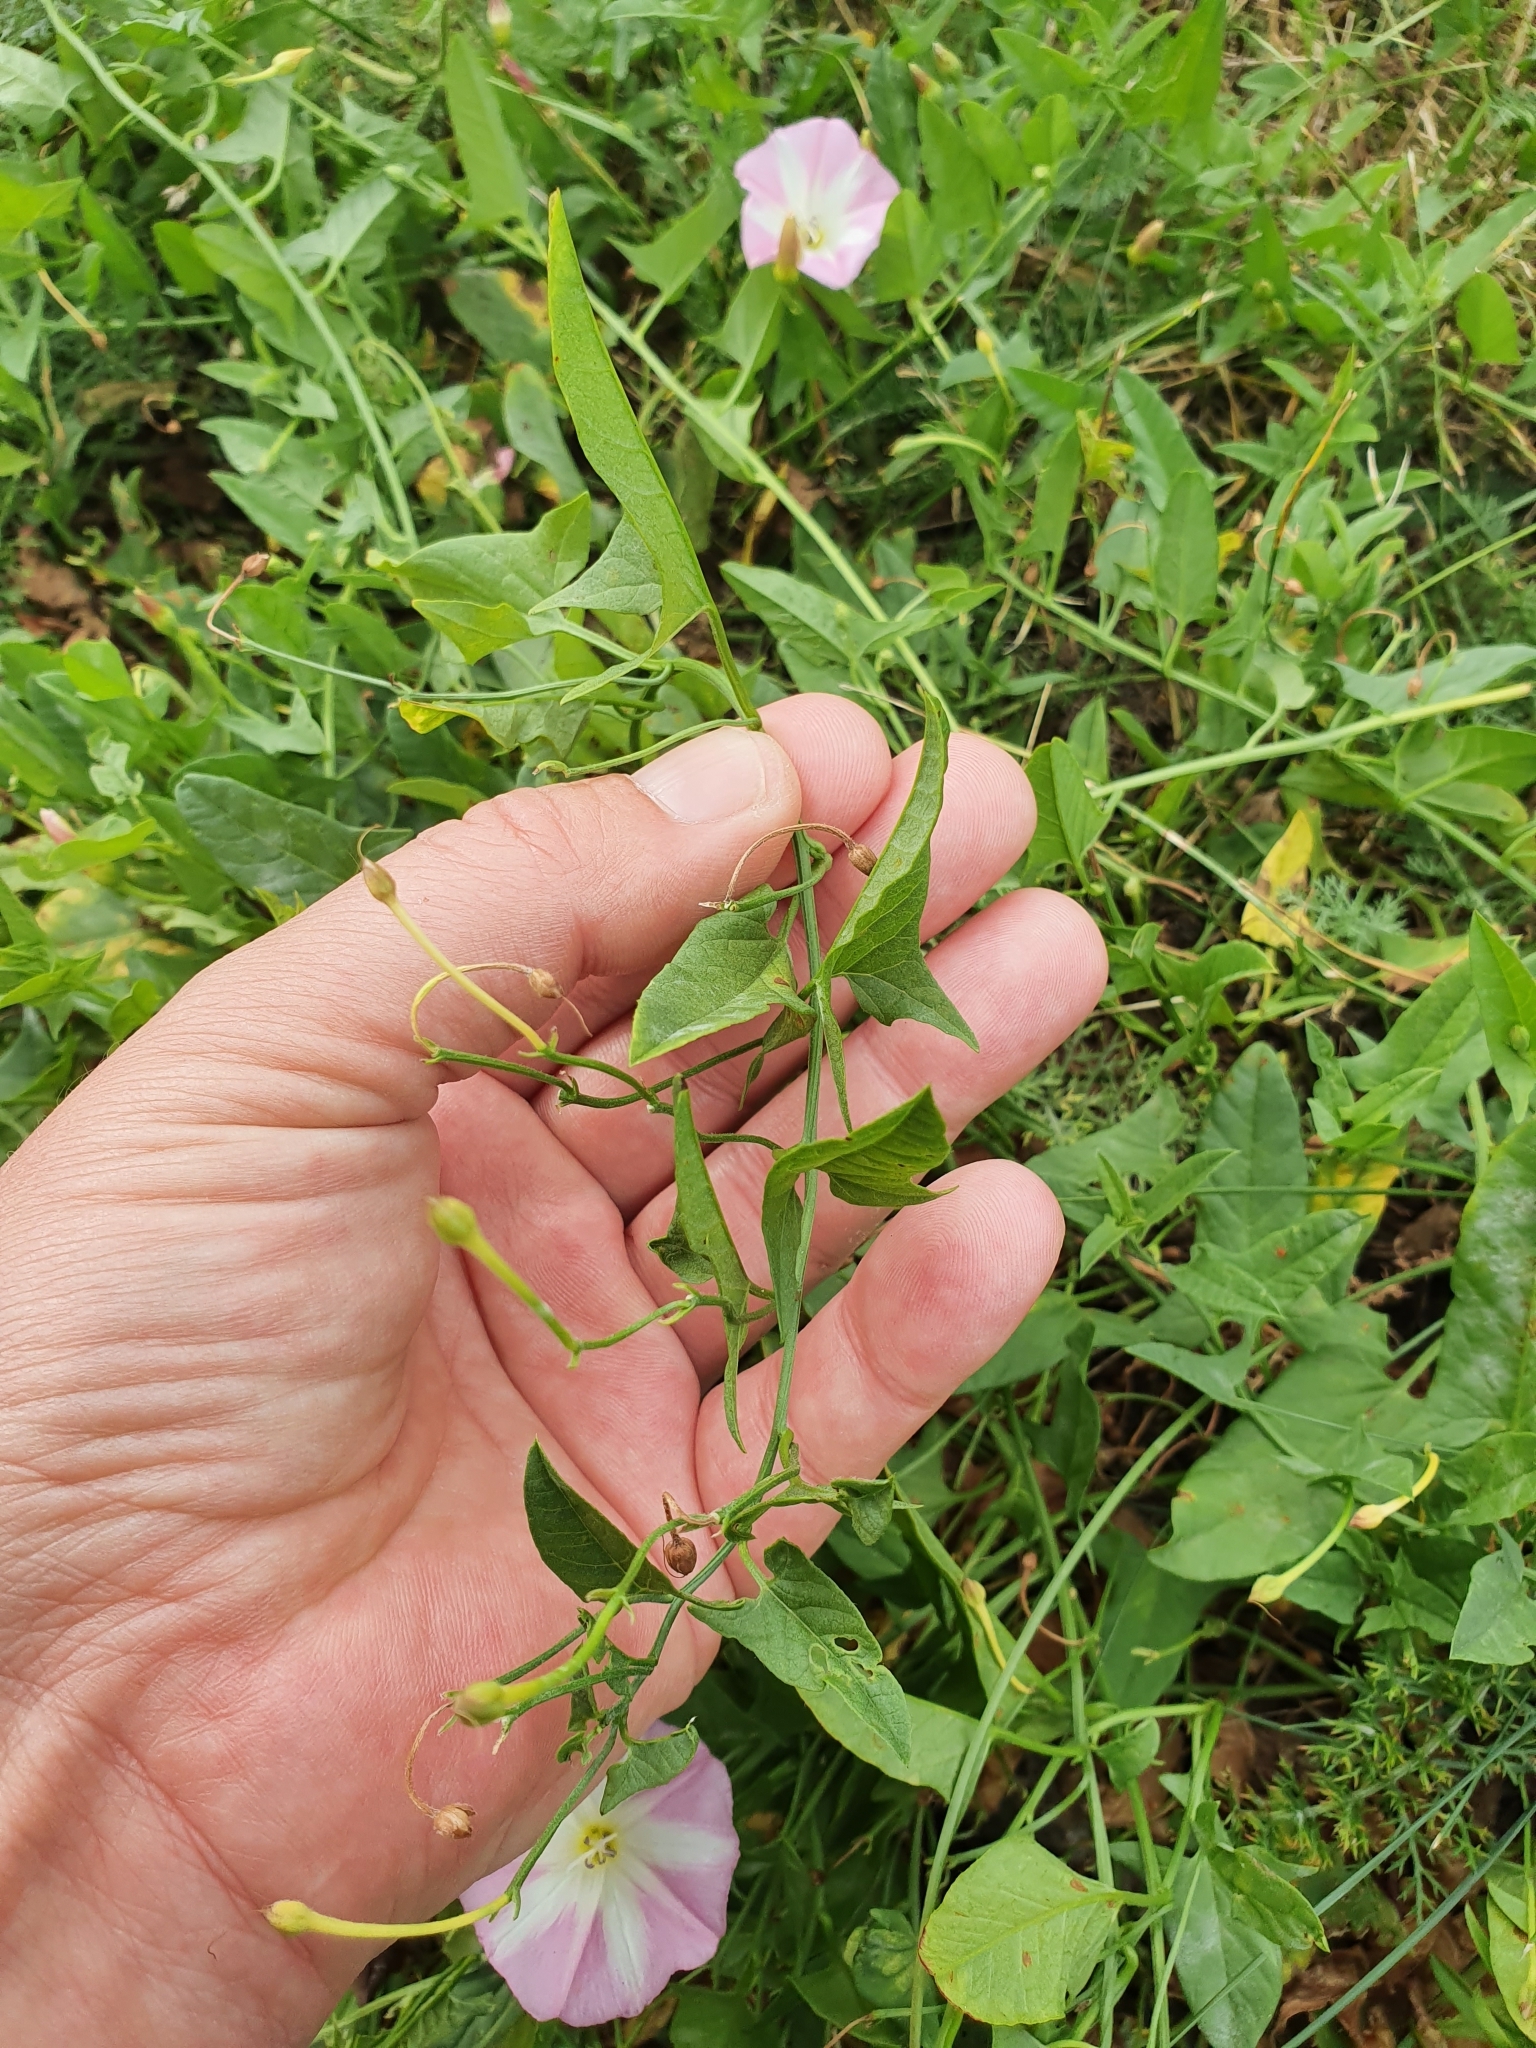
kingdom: Plantae
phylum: Tracheophyta
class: Magnoliopsida
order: Solanales
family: Convolvulaceae
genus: Convolvulus
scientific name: Convolvulus arvensis
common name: Field bindweed
